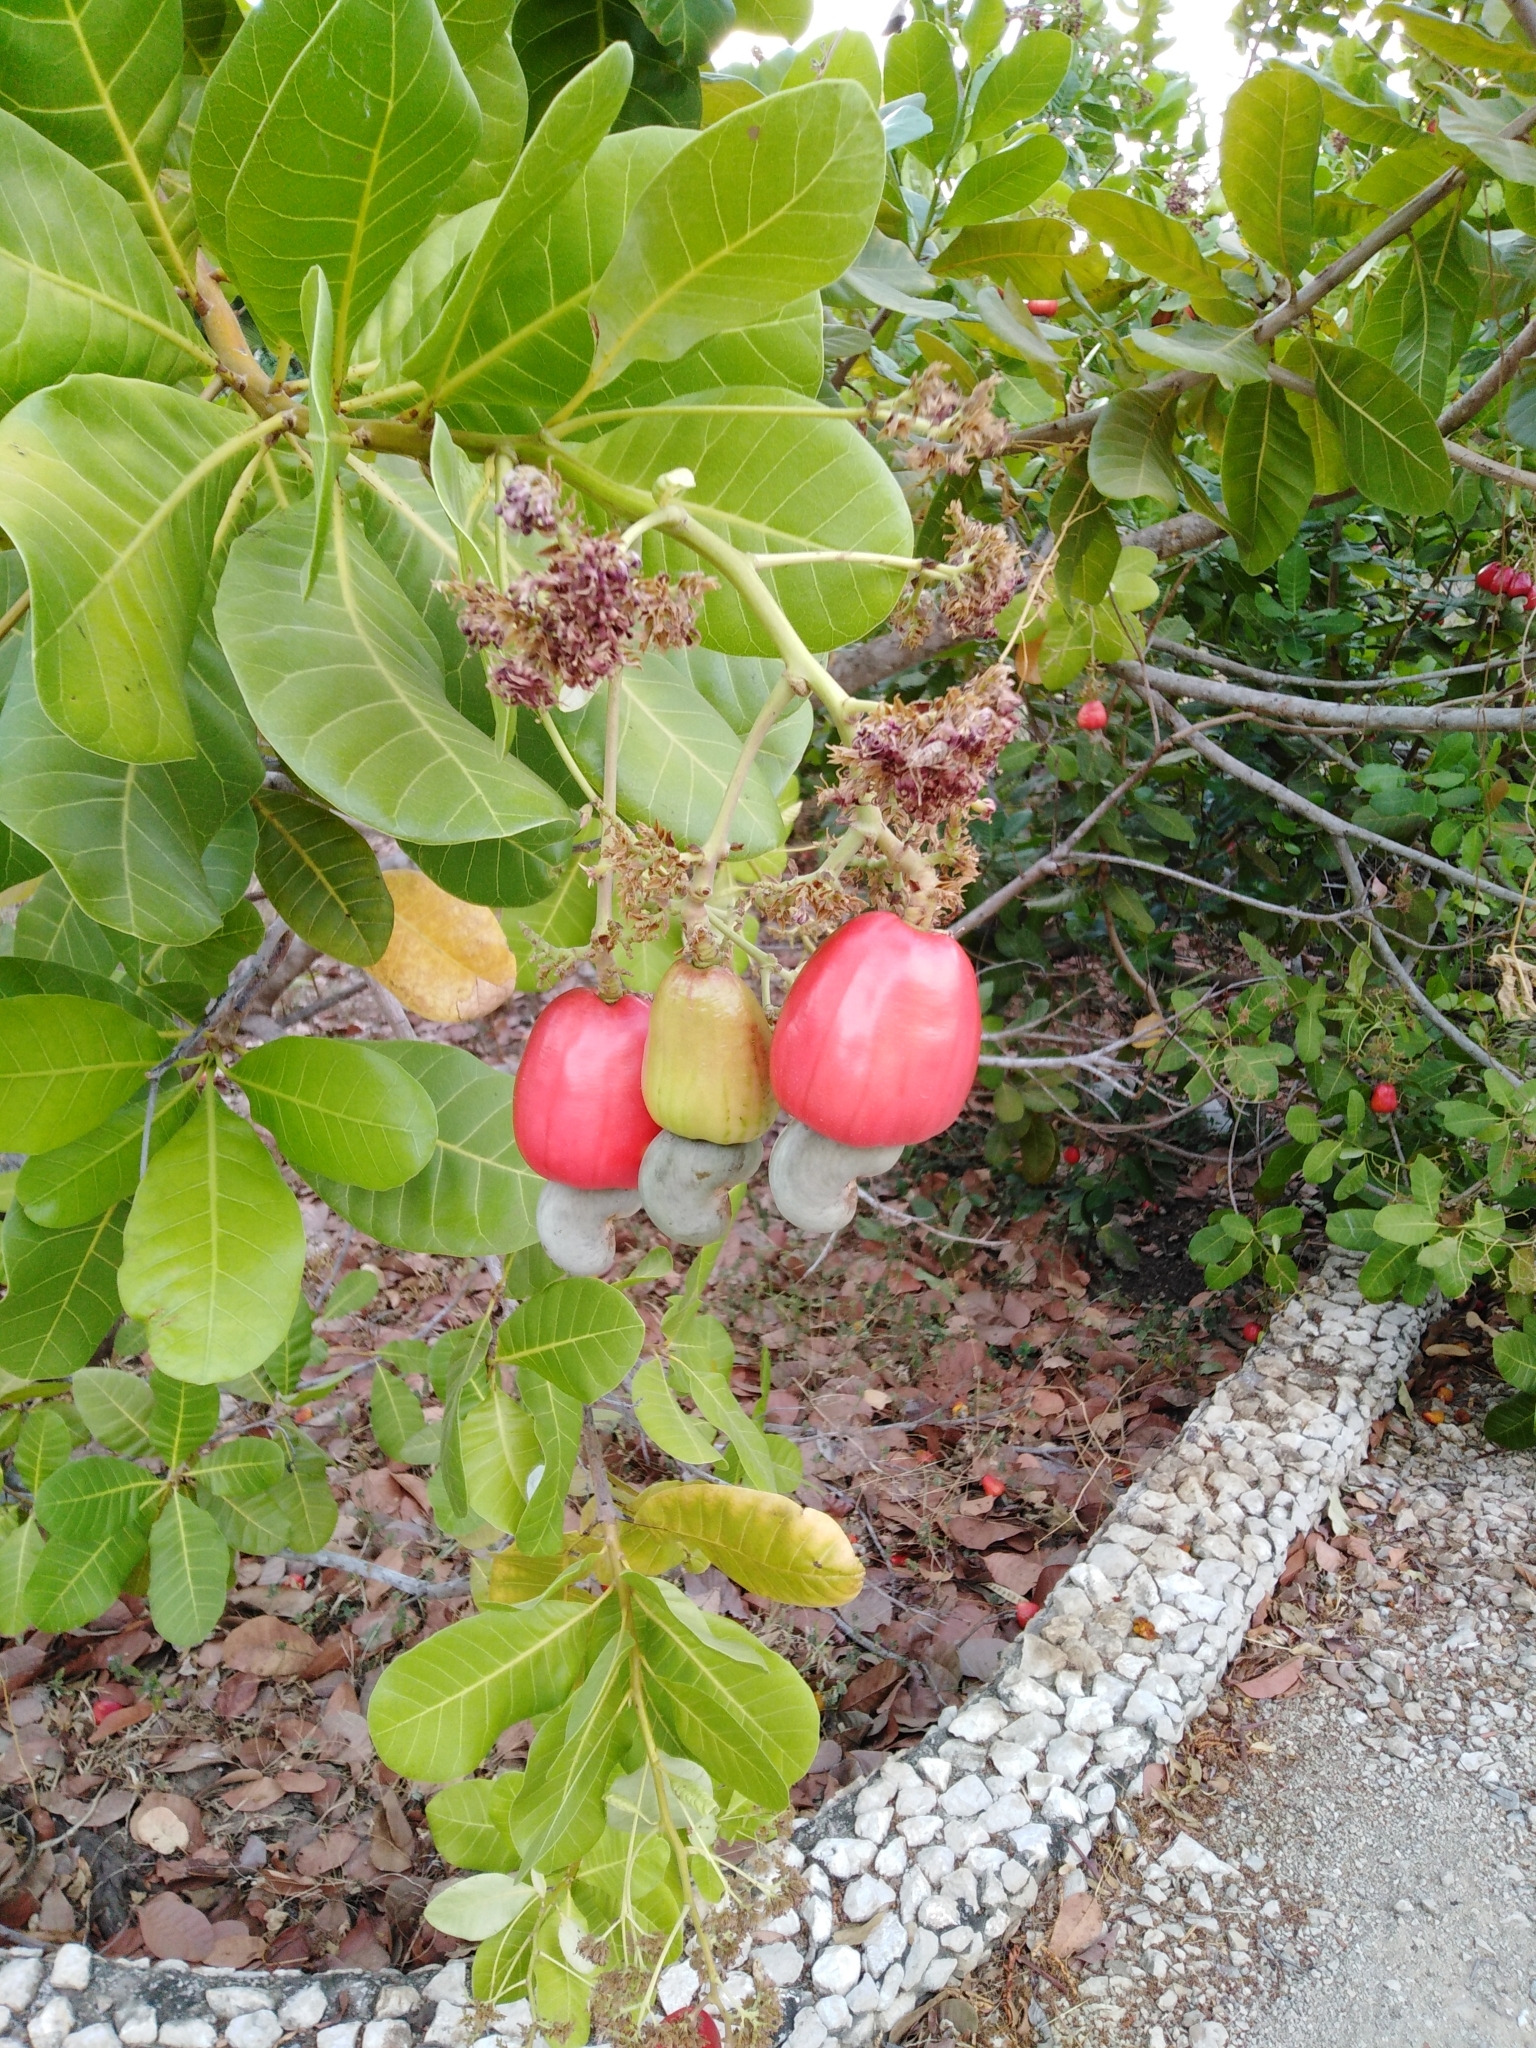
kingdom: Plantae
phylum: Tracheophyta
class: Magnoliopsida
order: Sapindales
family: Anacardiaceae
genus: Anacardium
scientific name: Anacardium occidentale
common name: Cashew
